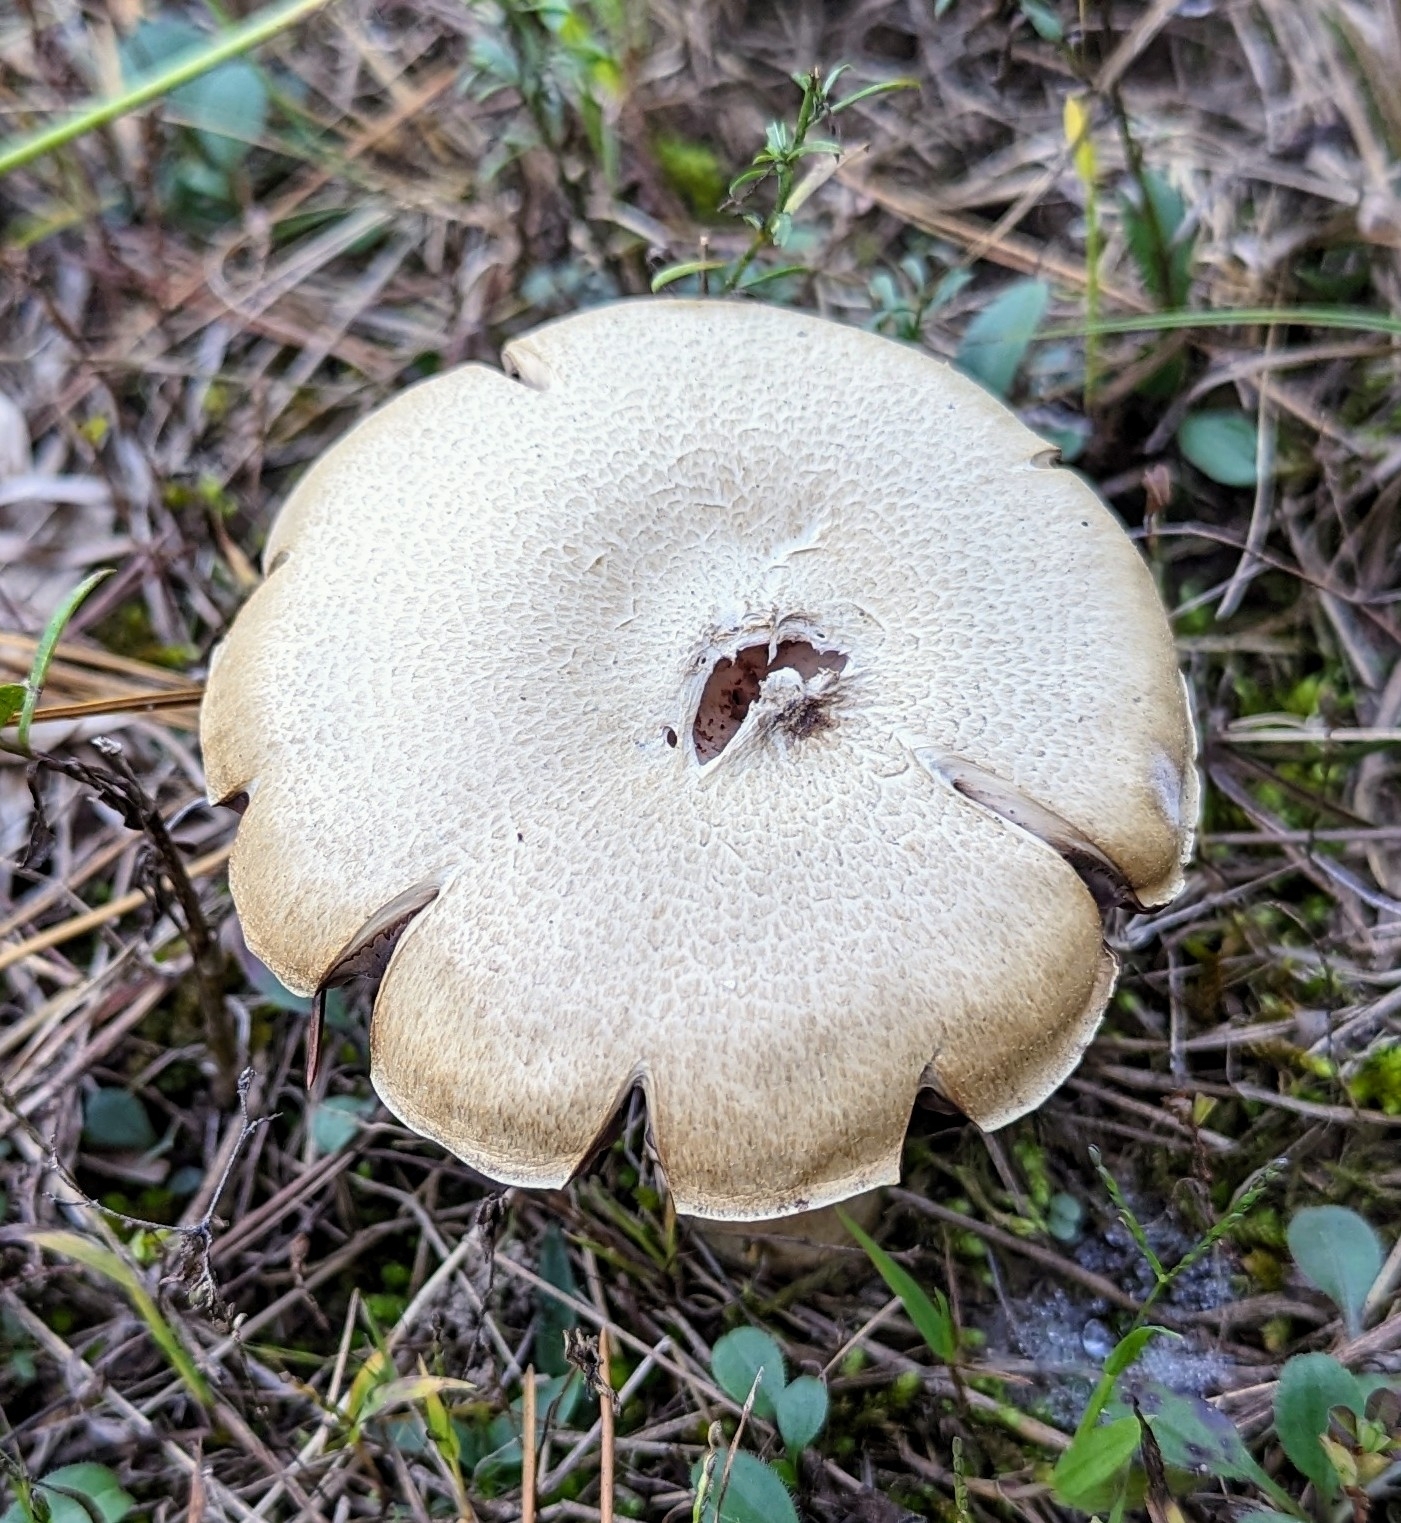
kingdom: Fungi
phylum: Basidiomycota
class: Agaricomycetes
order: Agaricales
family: Hydnangiaceae
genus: Laccaria
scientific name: Laccaria ochropurpurea
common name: Purple laccaria
